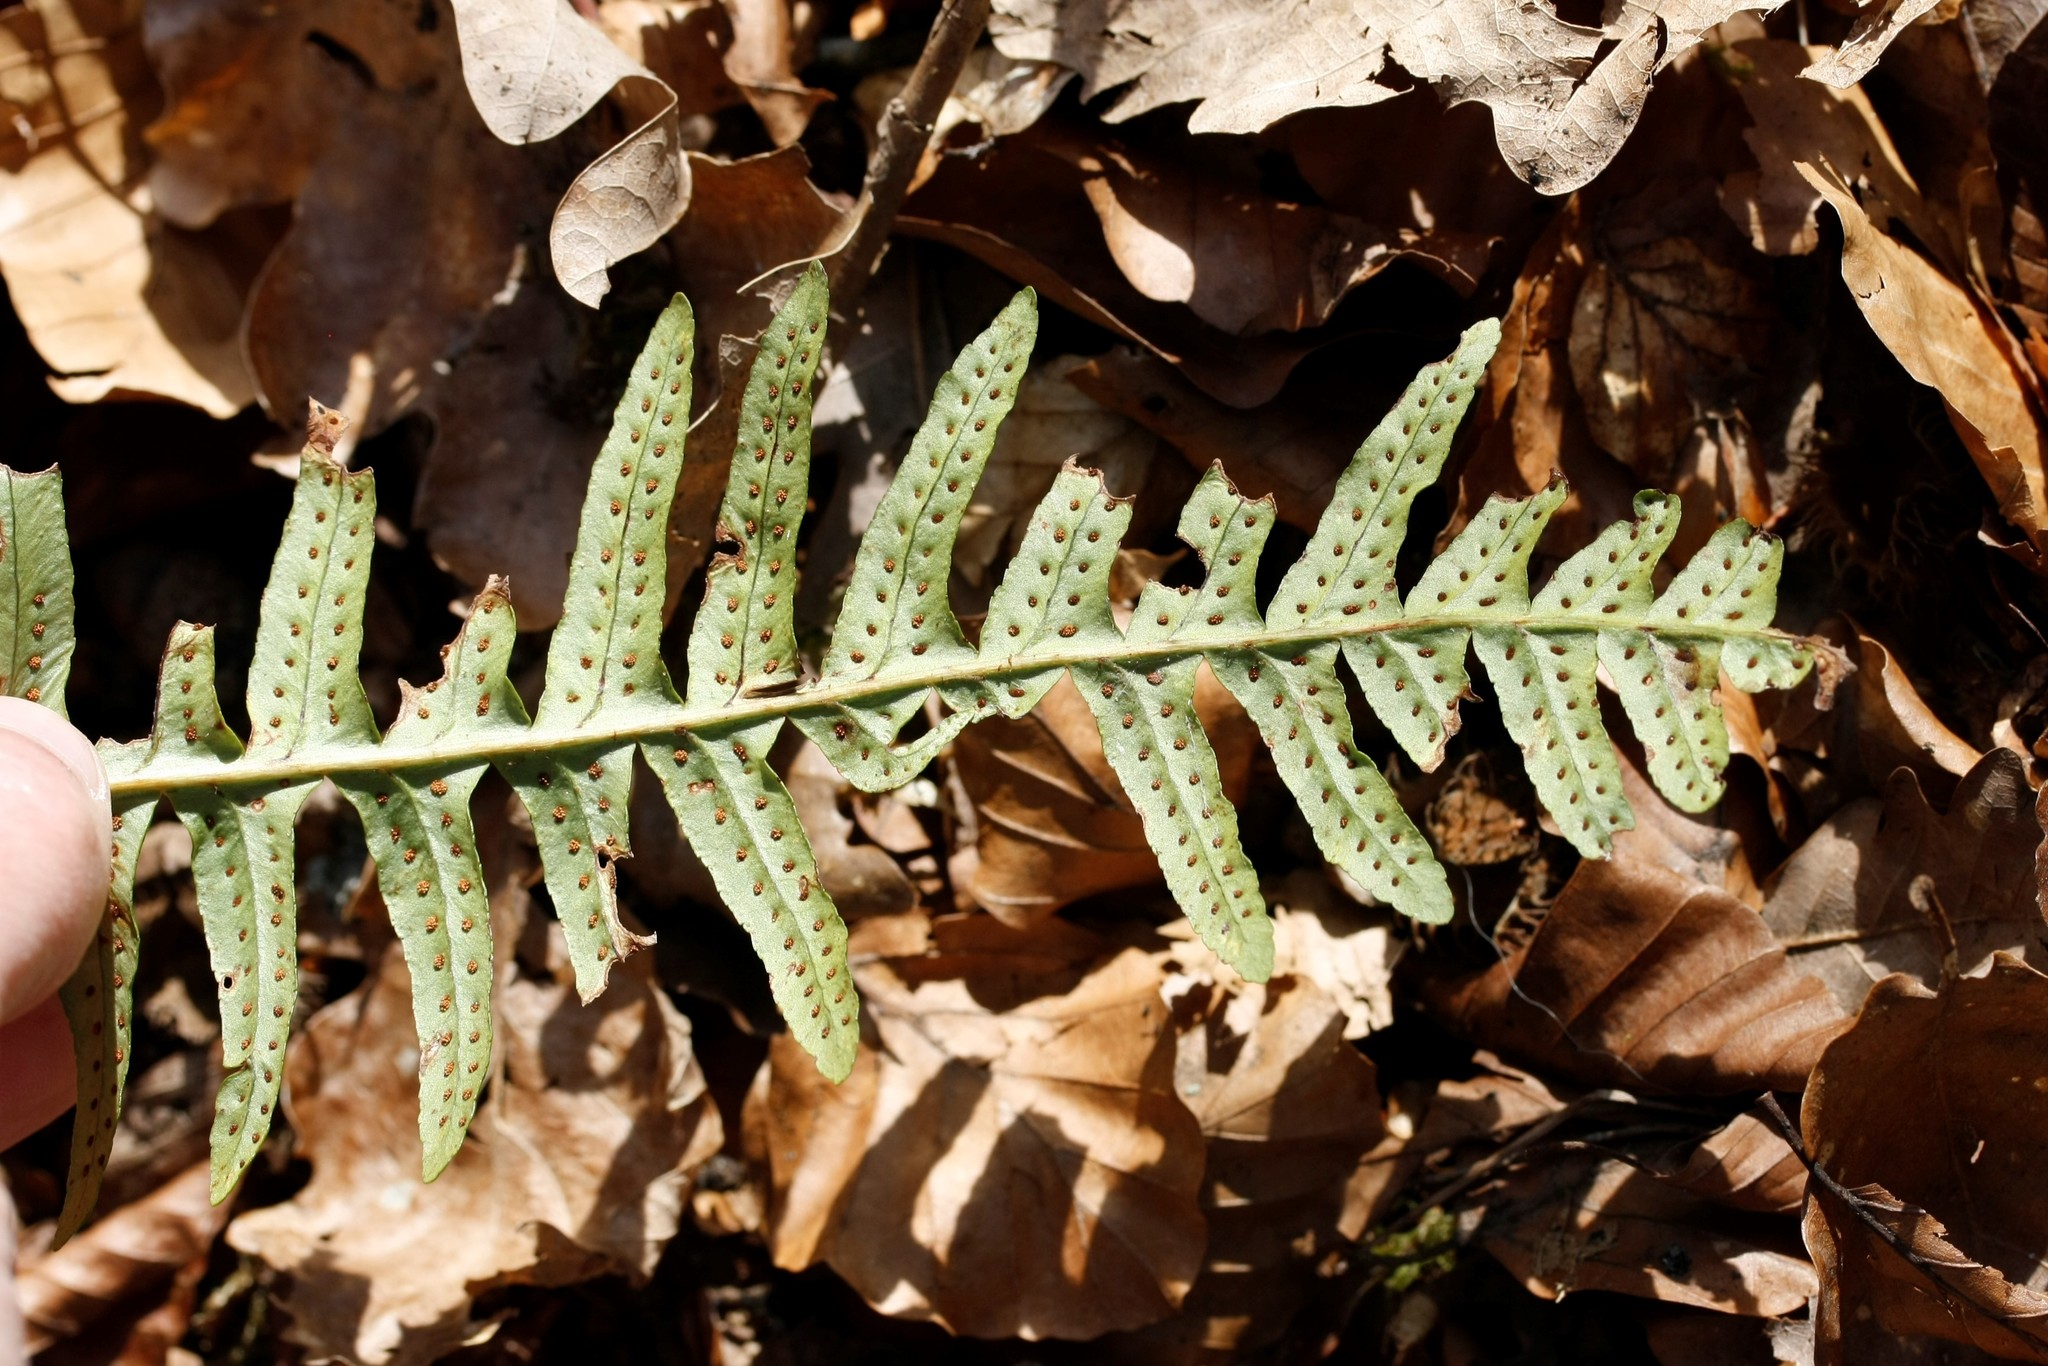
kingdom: Plantae
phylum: Tracheophyta
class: Polypodiopsida
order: Polypodiales
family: Polypodiaceae
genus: Polypodium
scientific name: Polypodium vulgare
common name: Common polypody
